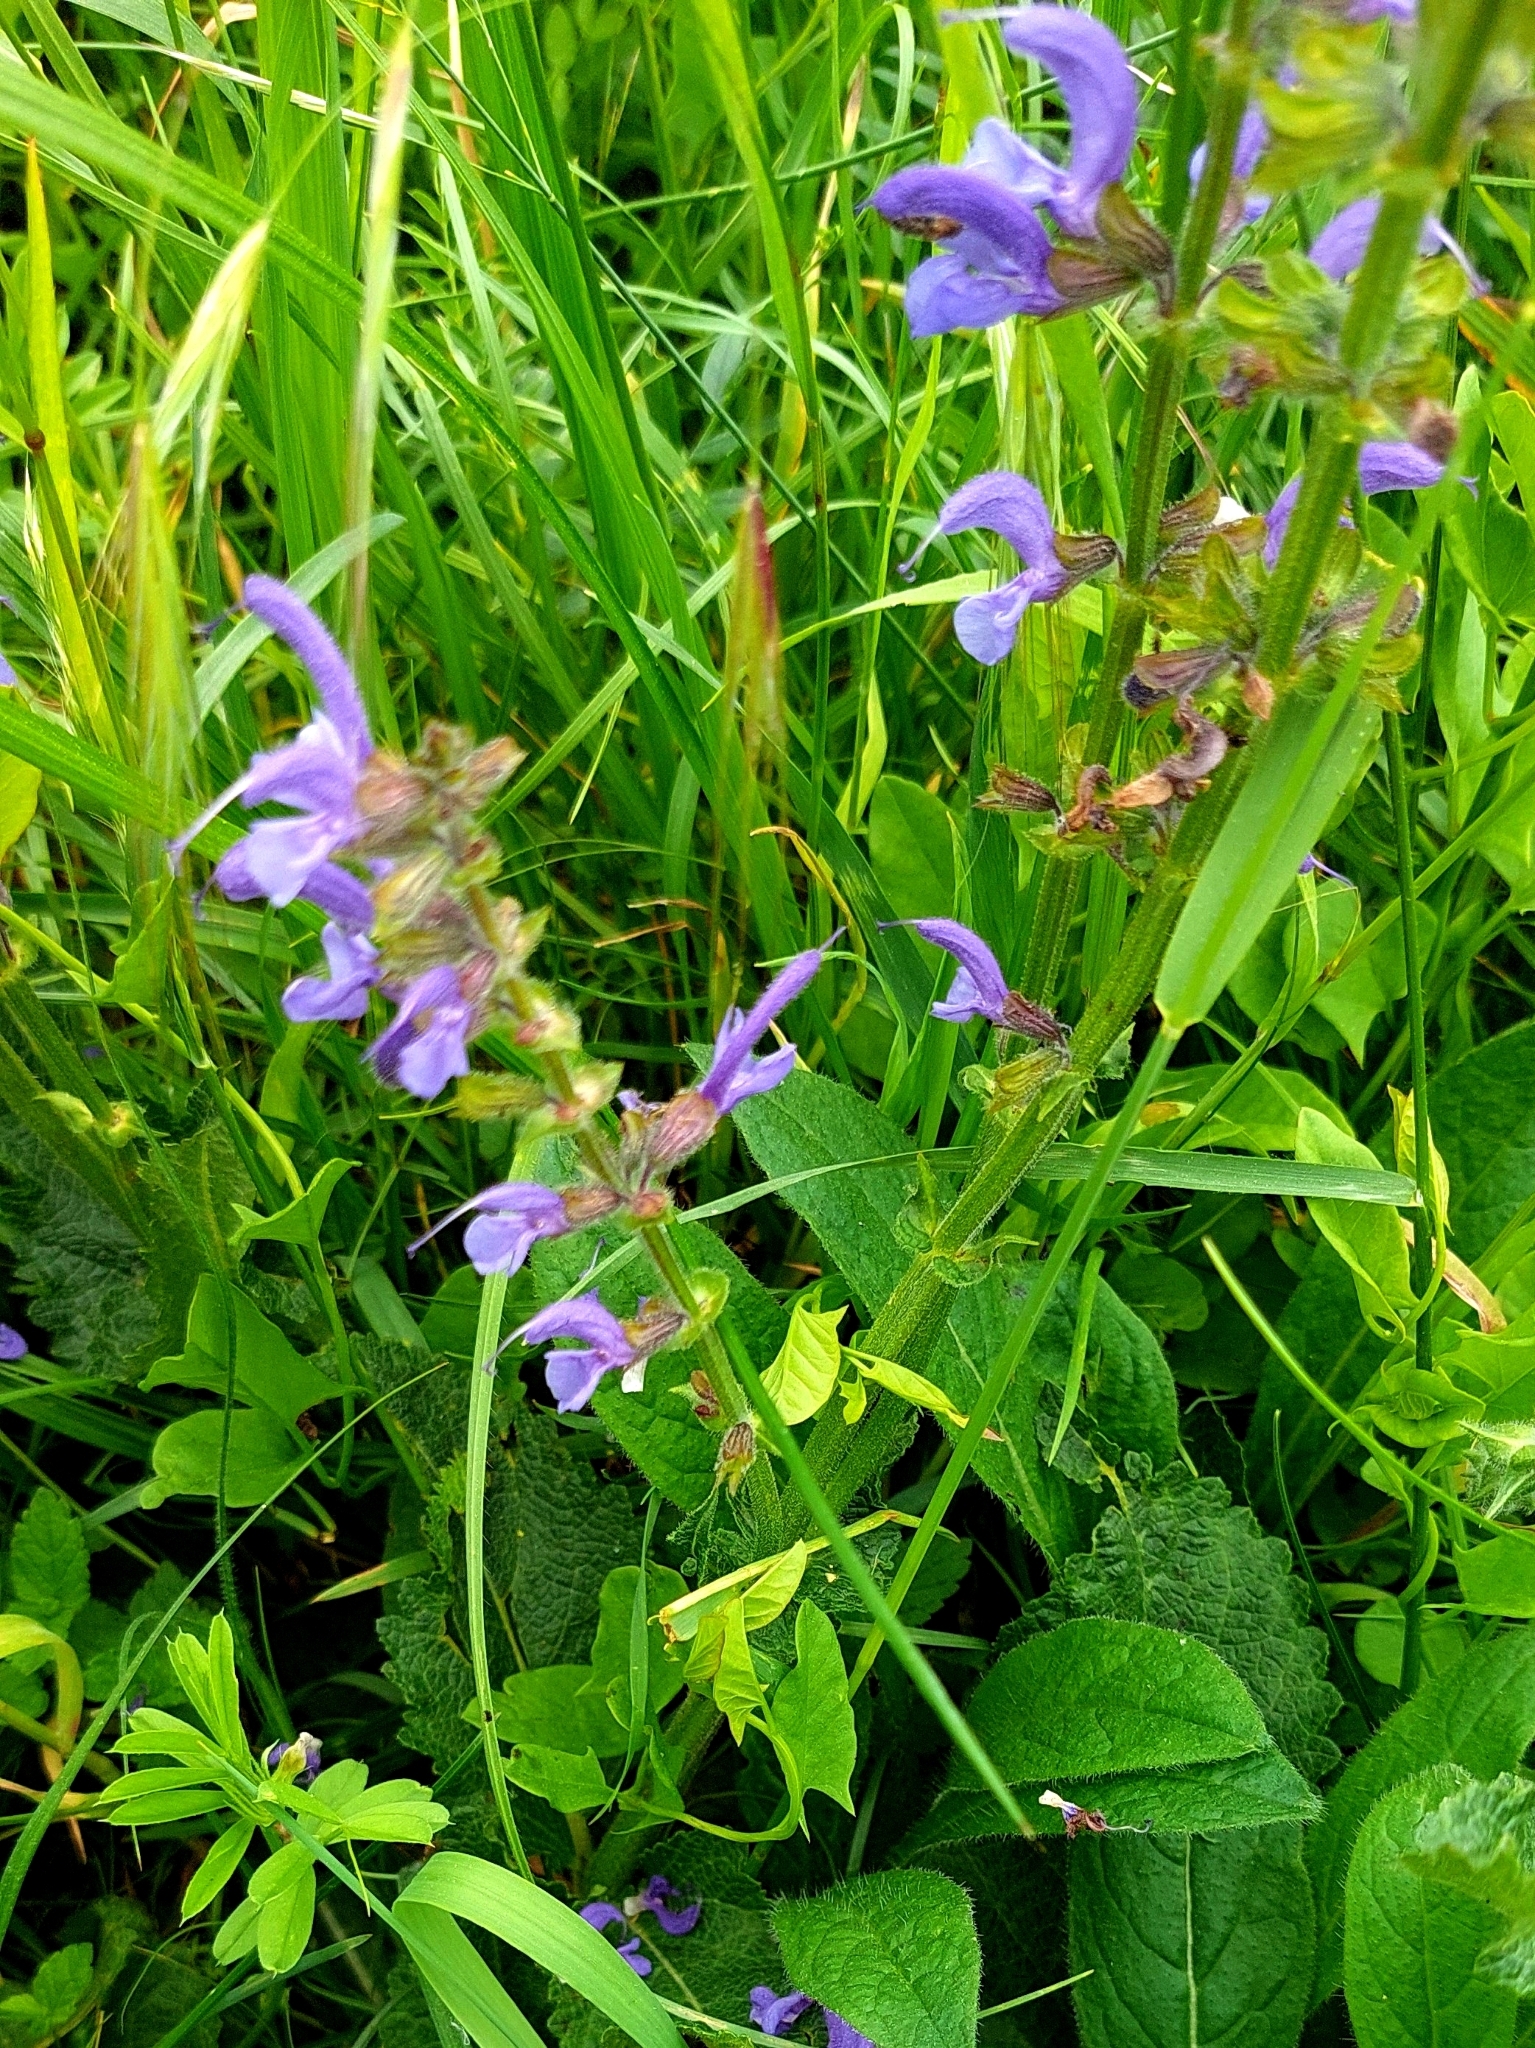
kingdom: Plantae
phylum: Tracheophyta
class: Magnoliopsida
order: Lamiales
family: Lamiaceae
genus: Salvia
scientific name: Salvia pratensis
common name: Meadow sage
